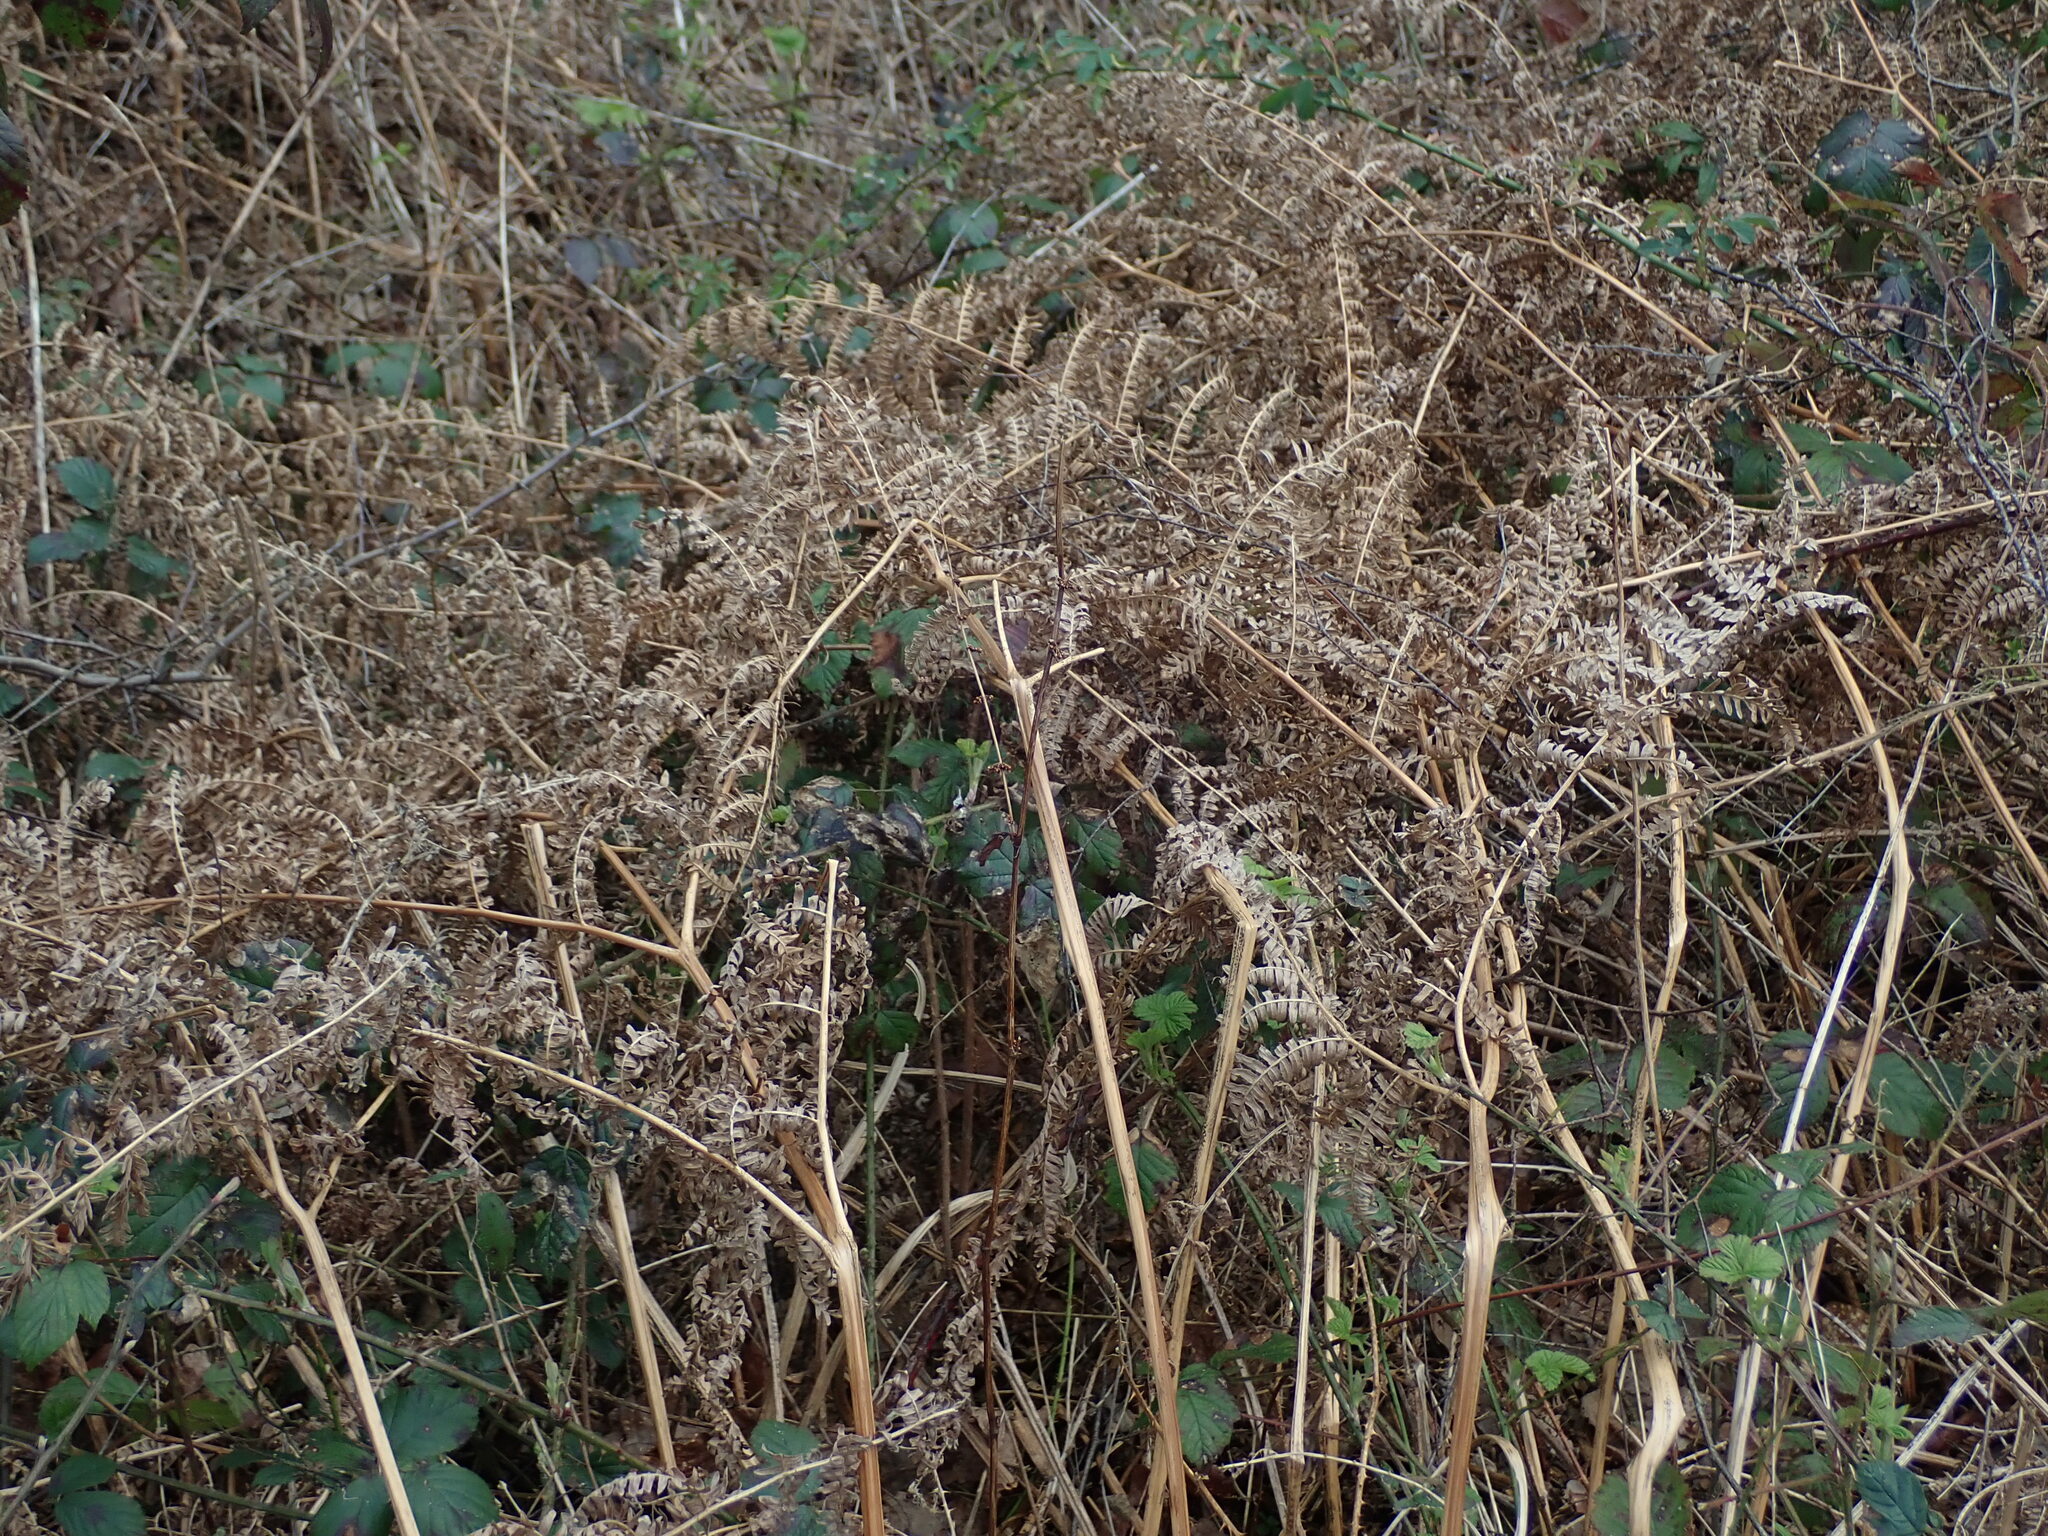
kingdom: Plantae
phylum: Tracheophyta
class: Polypodiopsida
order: Polypodiales
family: Dennstaedtiaceae
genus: Pteridium
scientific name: Pteridium aquilinum
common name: Bracken
